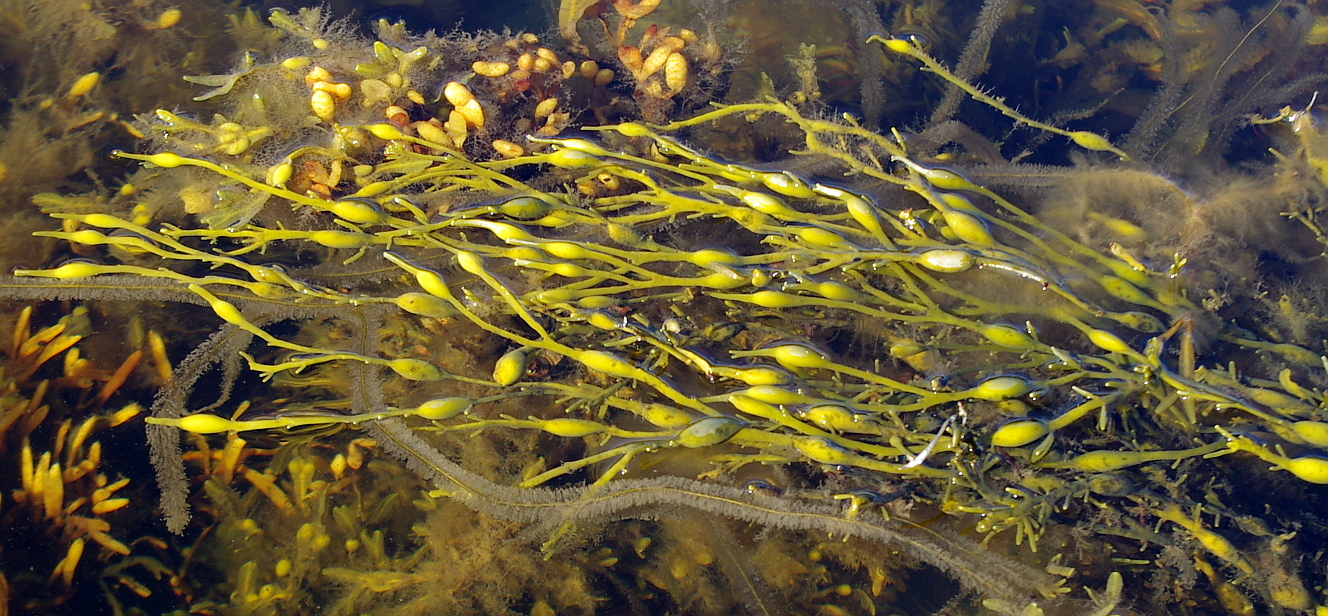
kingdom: Chromista
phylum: Ochrophyta
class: Phaeophyceae
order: Fucales
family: Fucaceae
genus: Ascophyllum
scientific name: Ascophyllum nodosum
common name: Knotted wrack
